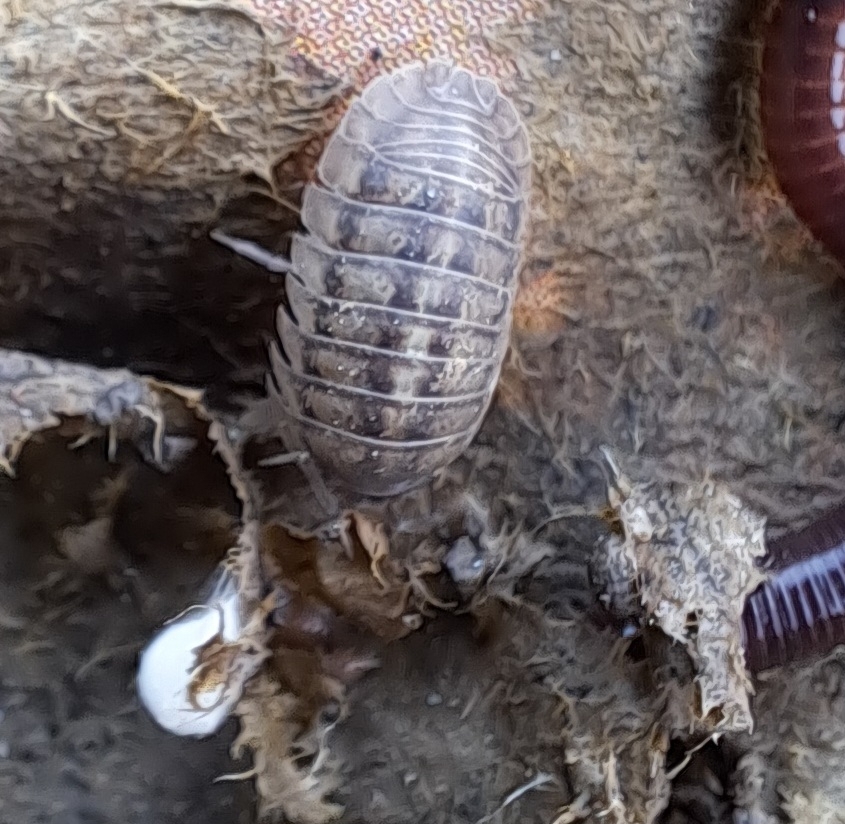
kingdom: Animalia
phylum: Arthropoda
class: Malacostraca
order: Isopoda
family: Armadillidiidae
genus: Armadillidium
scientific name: Armadillidium nasatum
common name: Isopod
